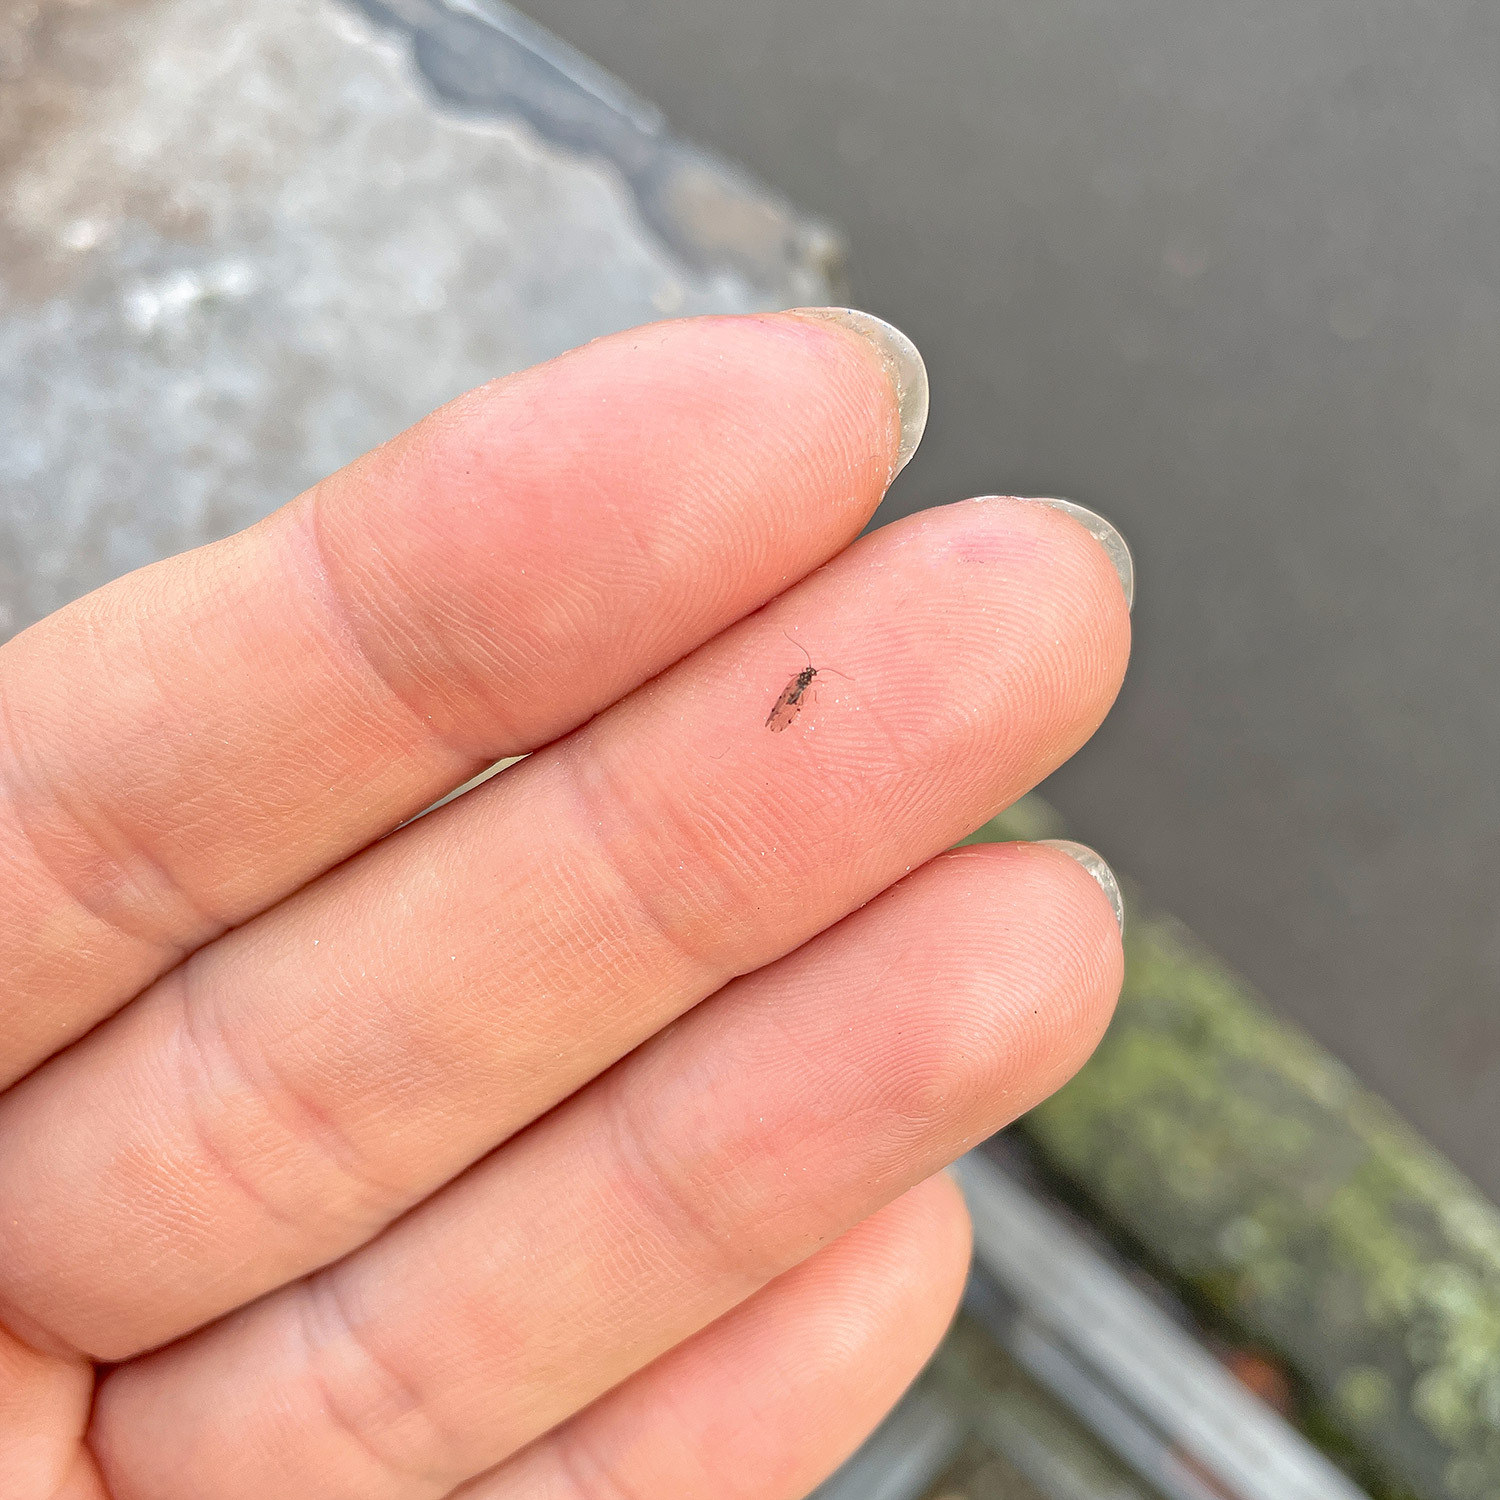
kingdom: Animalia
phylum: Arthropoda
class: Insecta
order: Psocodea
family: Ectopsocidae
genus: Ectopsocus
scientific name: Ectopsocus petersi
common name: Medium-sized bark louse
